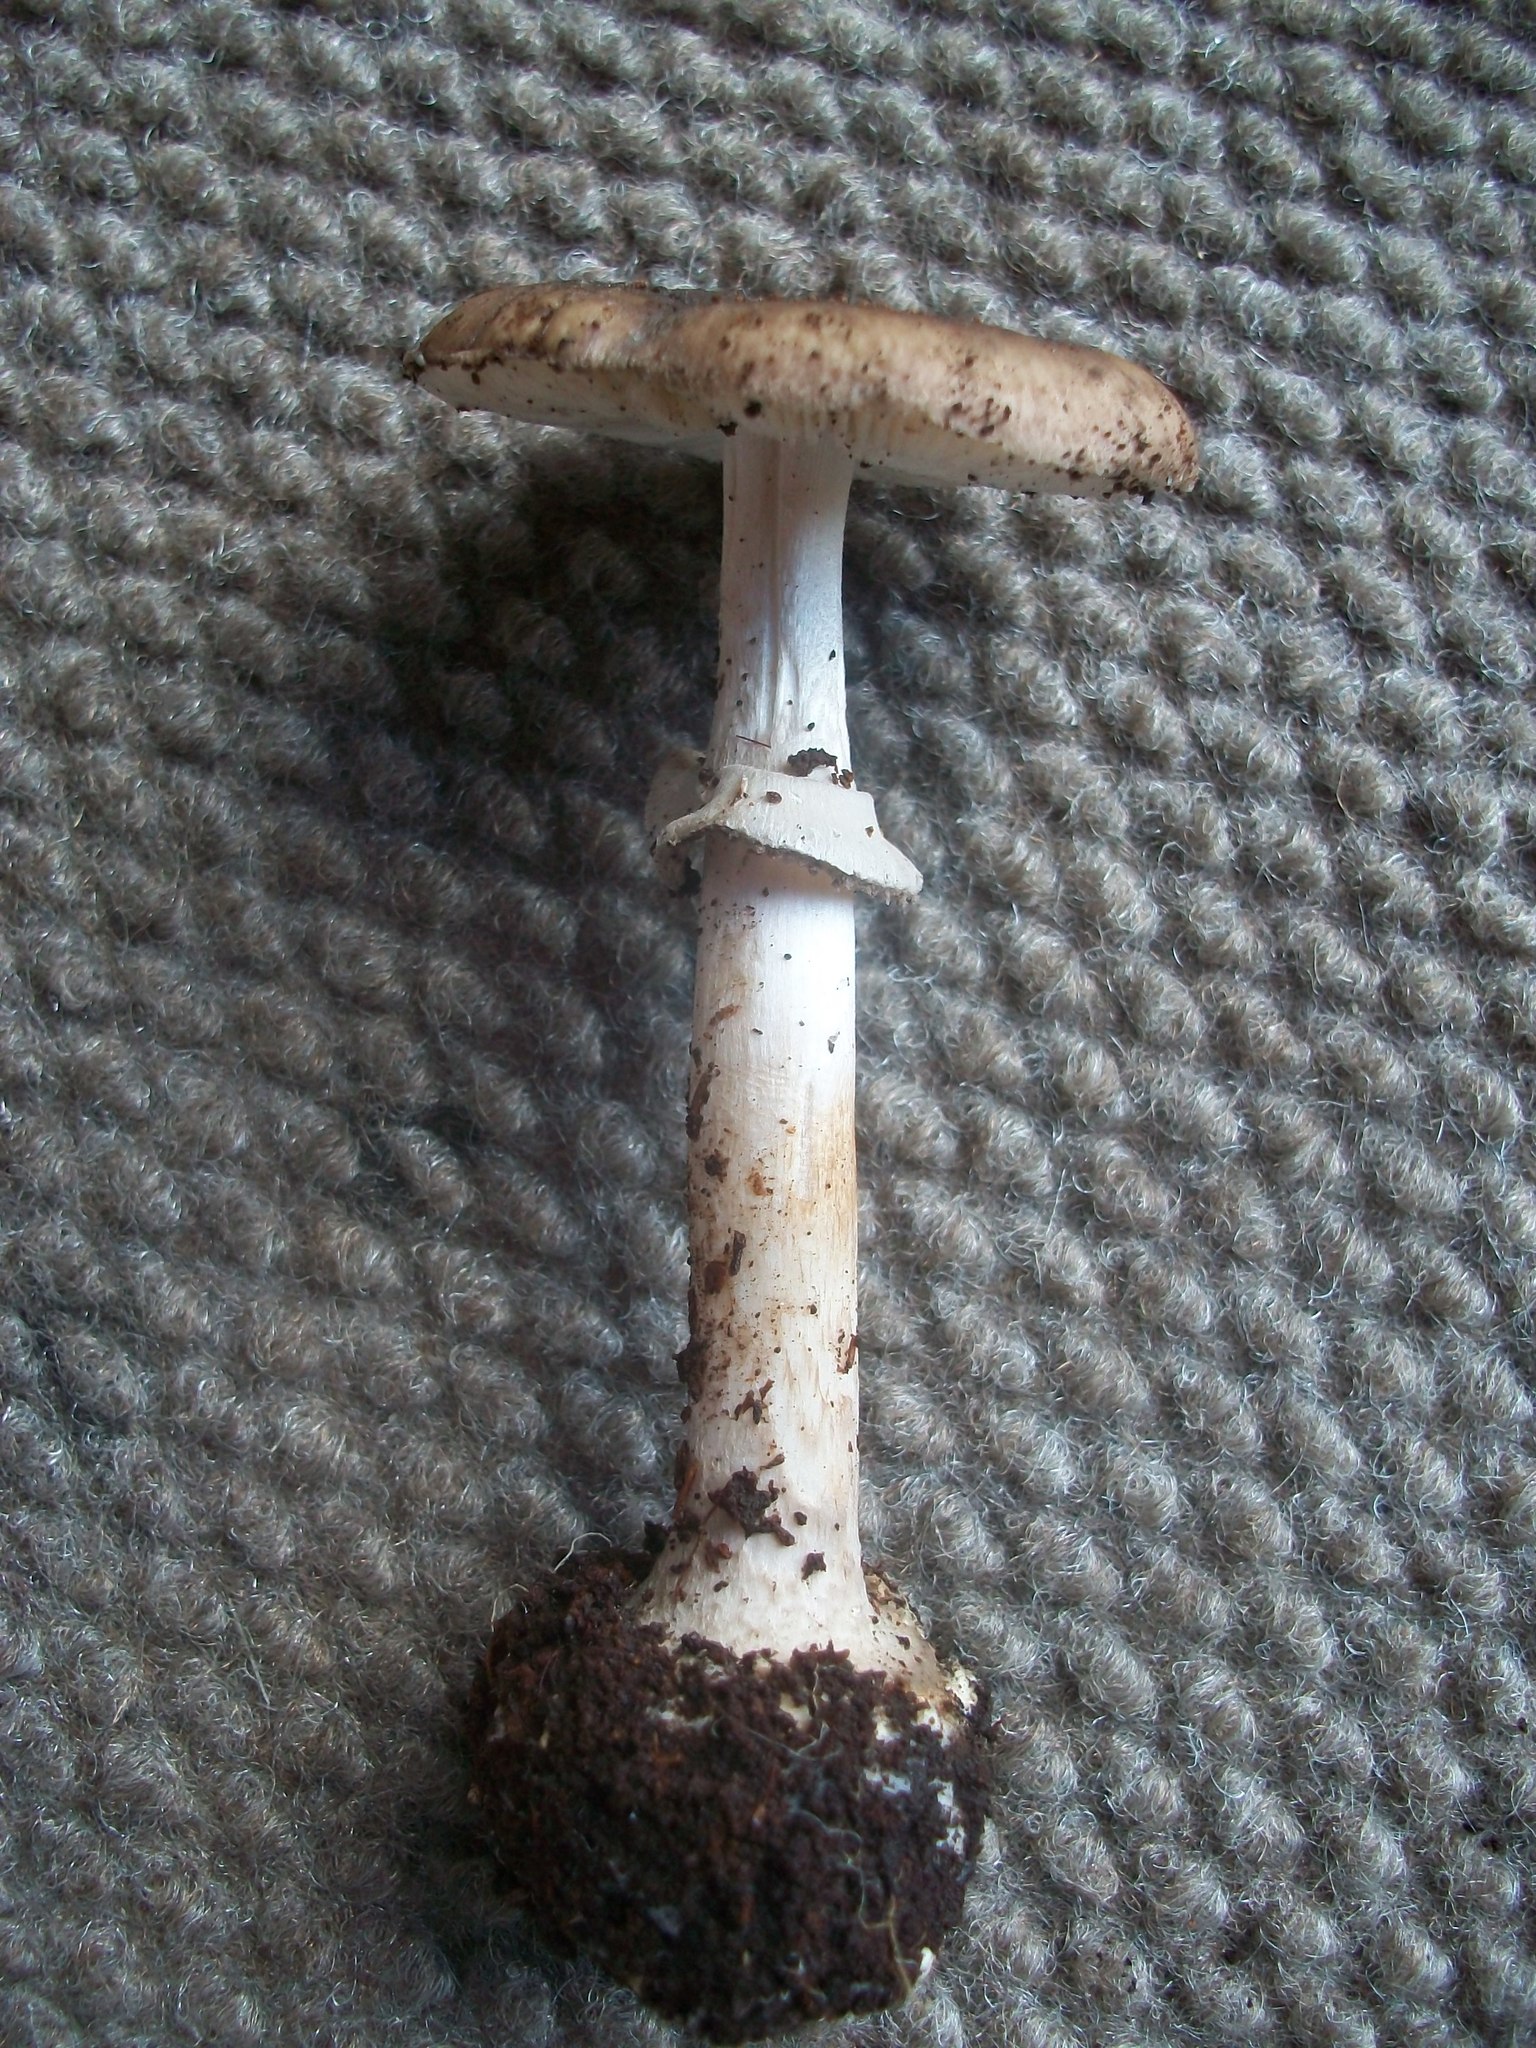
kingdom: Fungi
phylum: Basidiomycota
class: Agaricomycetes
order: Agaricales
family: Amanitaceae
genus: Amanita
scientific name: Amanita porphyria
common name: Grey veiled amanita
